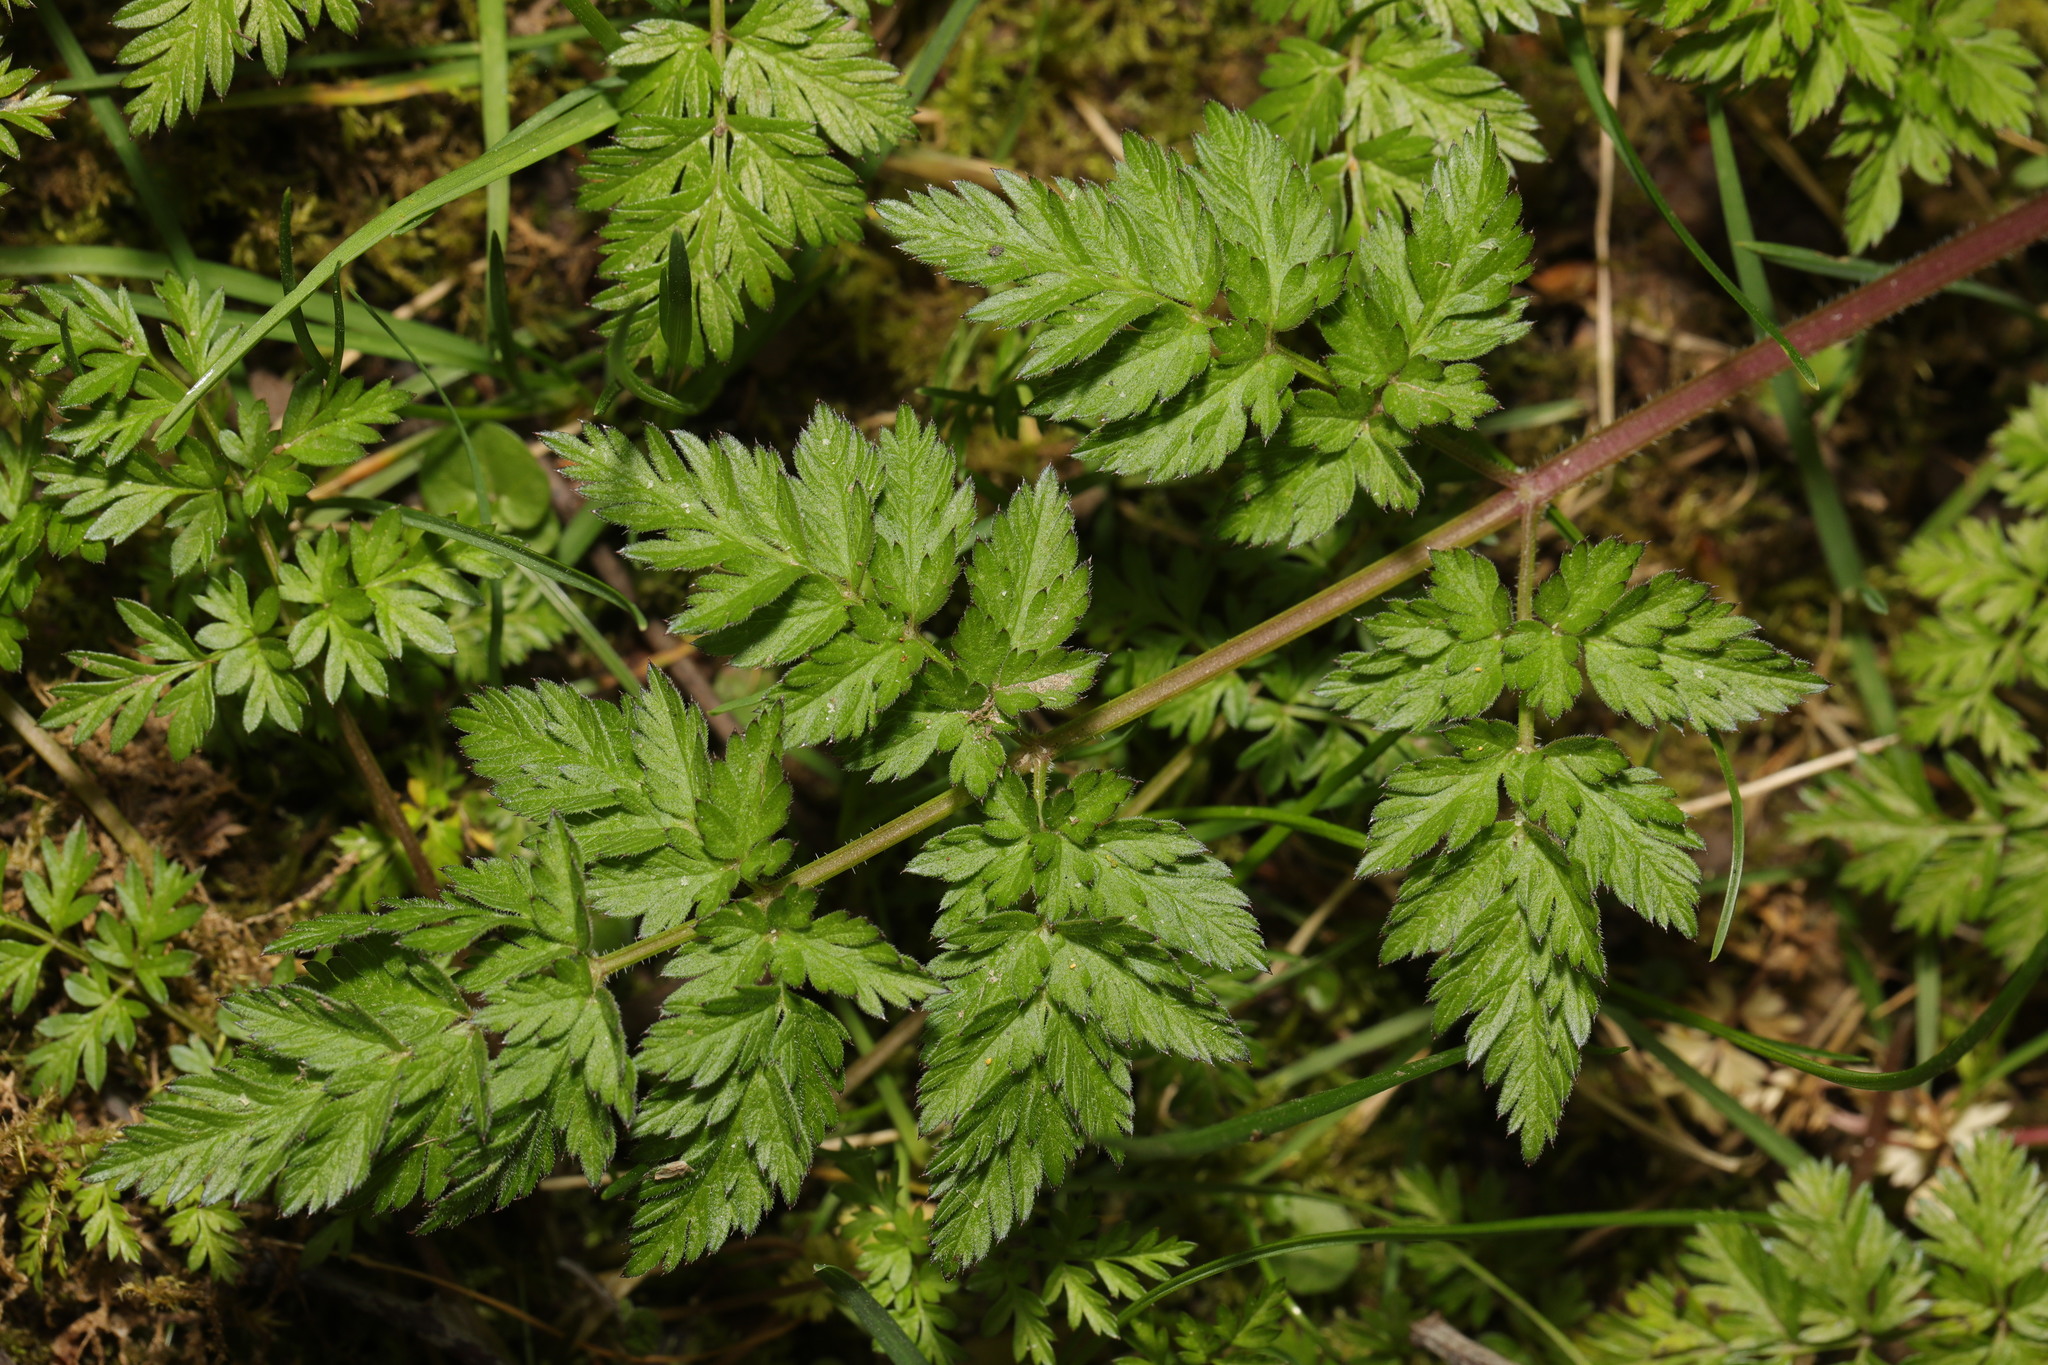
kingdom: Plantae
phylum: Tracheophyta
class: Magnoliopsida
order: Apiales
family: Apiaceae
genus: Anthriscus
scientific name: Anthriscus sylvestris
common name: Cow parsley
